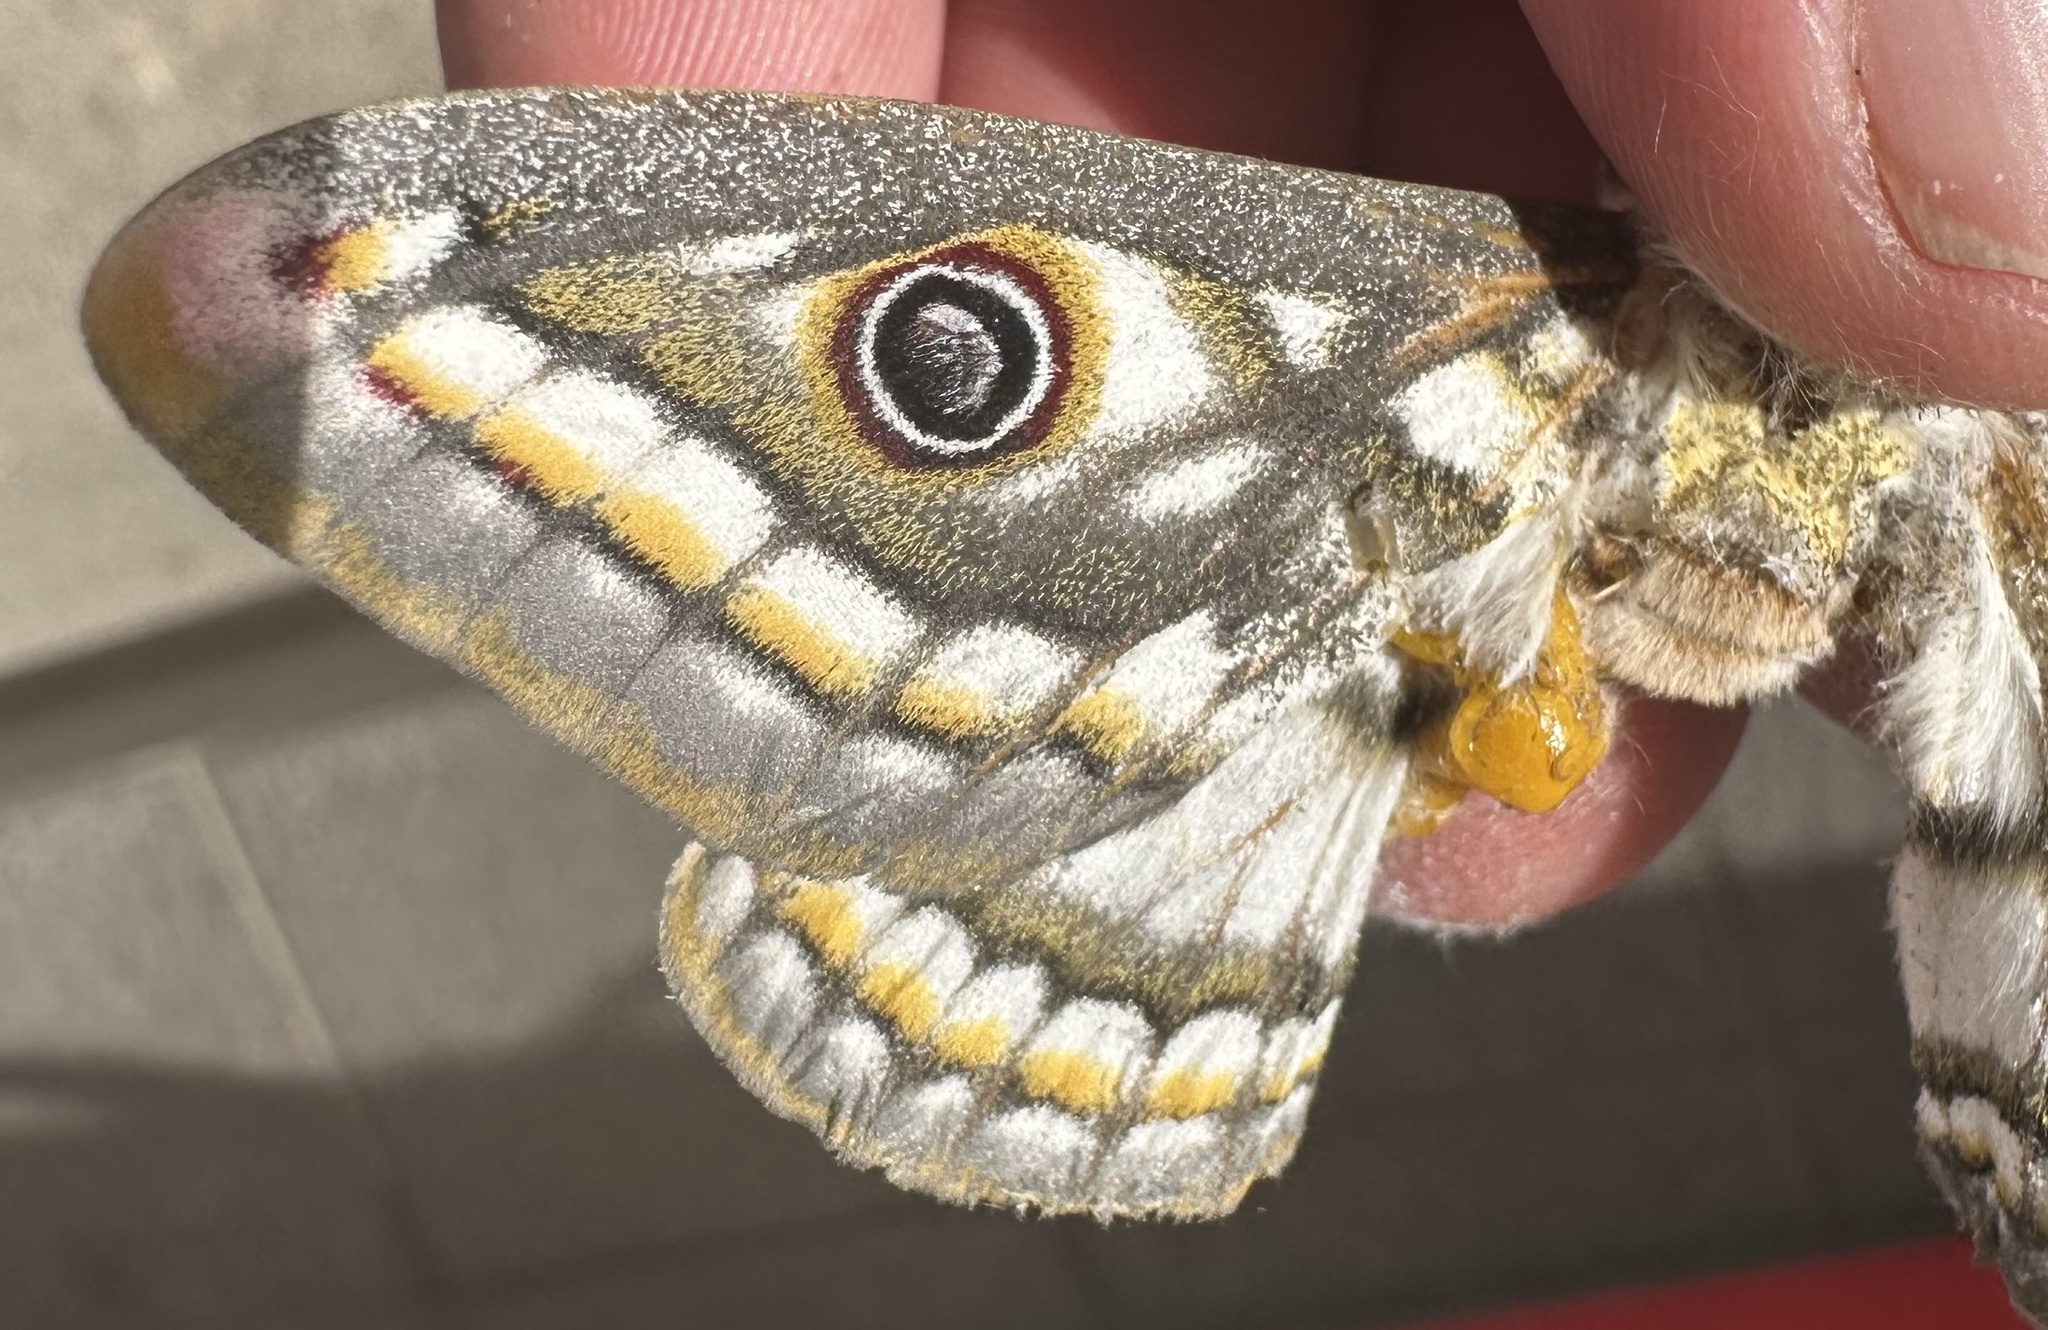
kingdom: Animalia
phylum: Arthropoda
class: Insecta
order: Lepidoptera
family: Saturniidae
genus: Heniocha
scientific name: Heniocha bioculata
